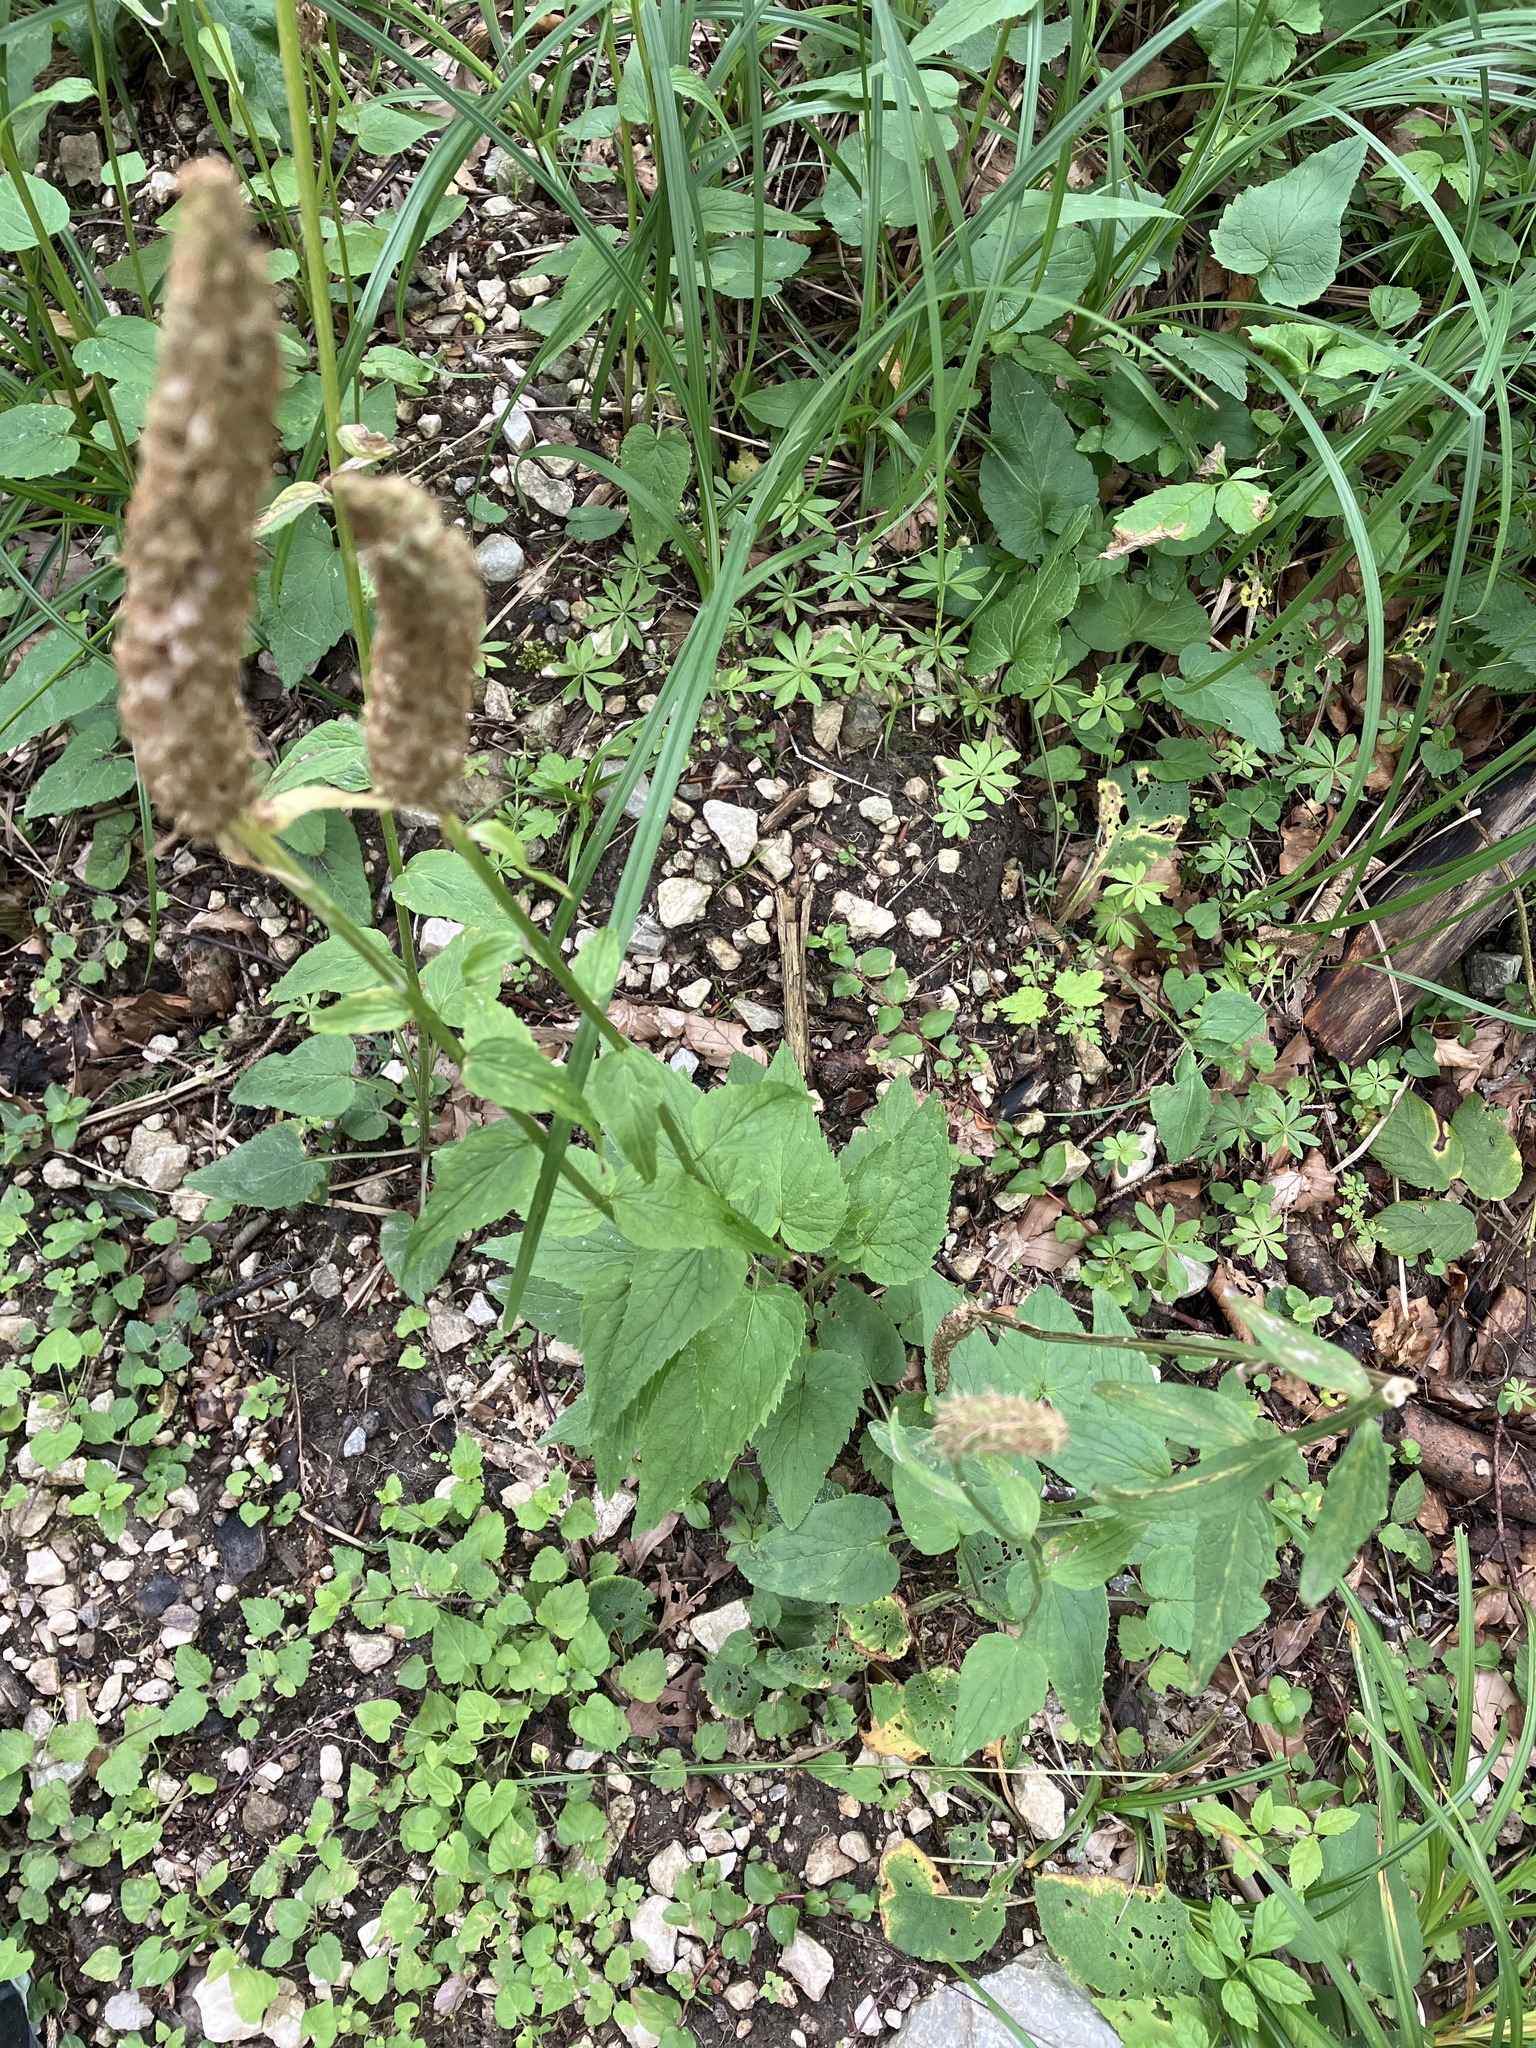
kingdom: Plantae
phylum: Tracheophyta
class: Magnoliopsida
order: Asterales
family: Campanulaceae
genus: Phyteuma
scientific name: Phyteuma spicatum
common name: Spiked rampion
